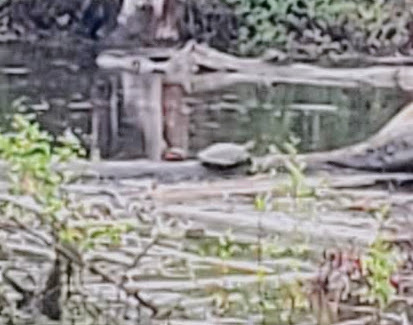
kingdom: Animalia
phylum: Chordata
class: Testudines
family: Emydidae
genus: Chrysemys
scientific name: Chrysemys picta
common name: Painted turtle
